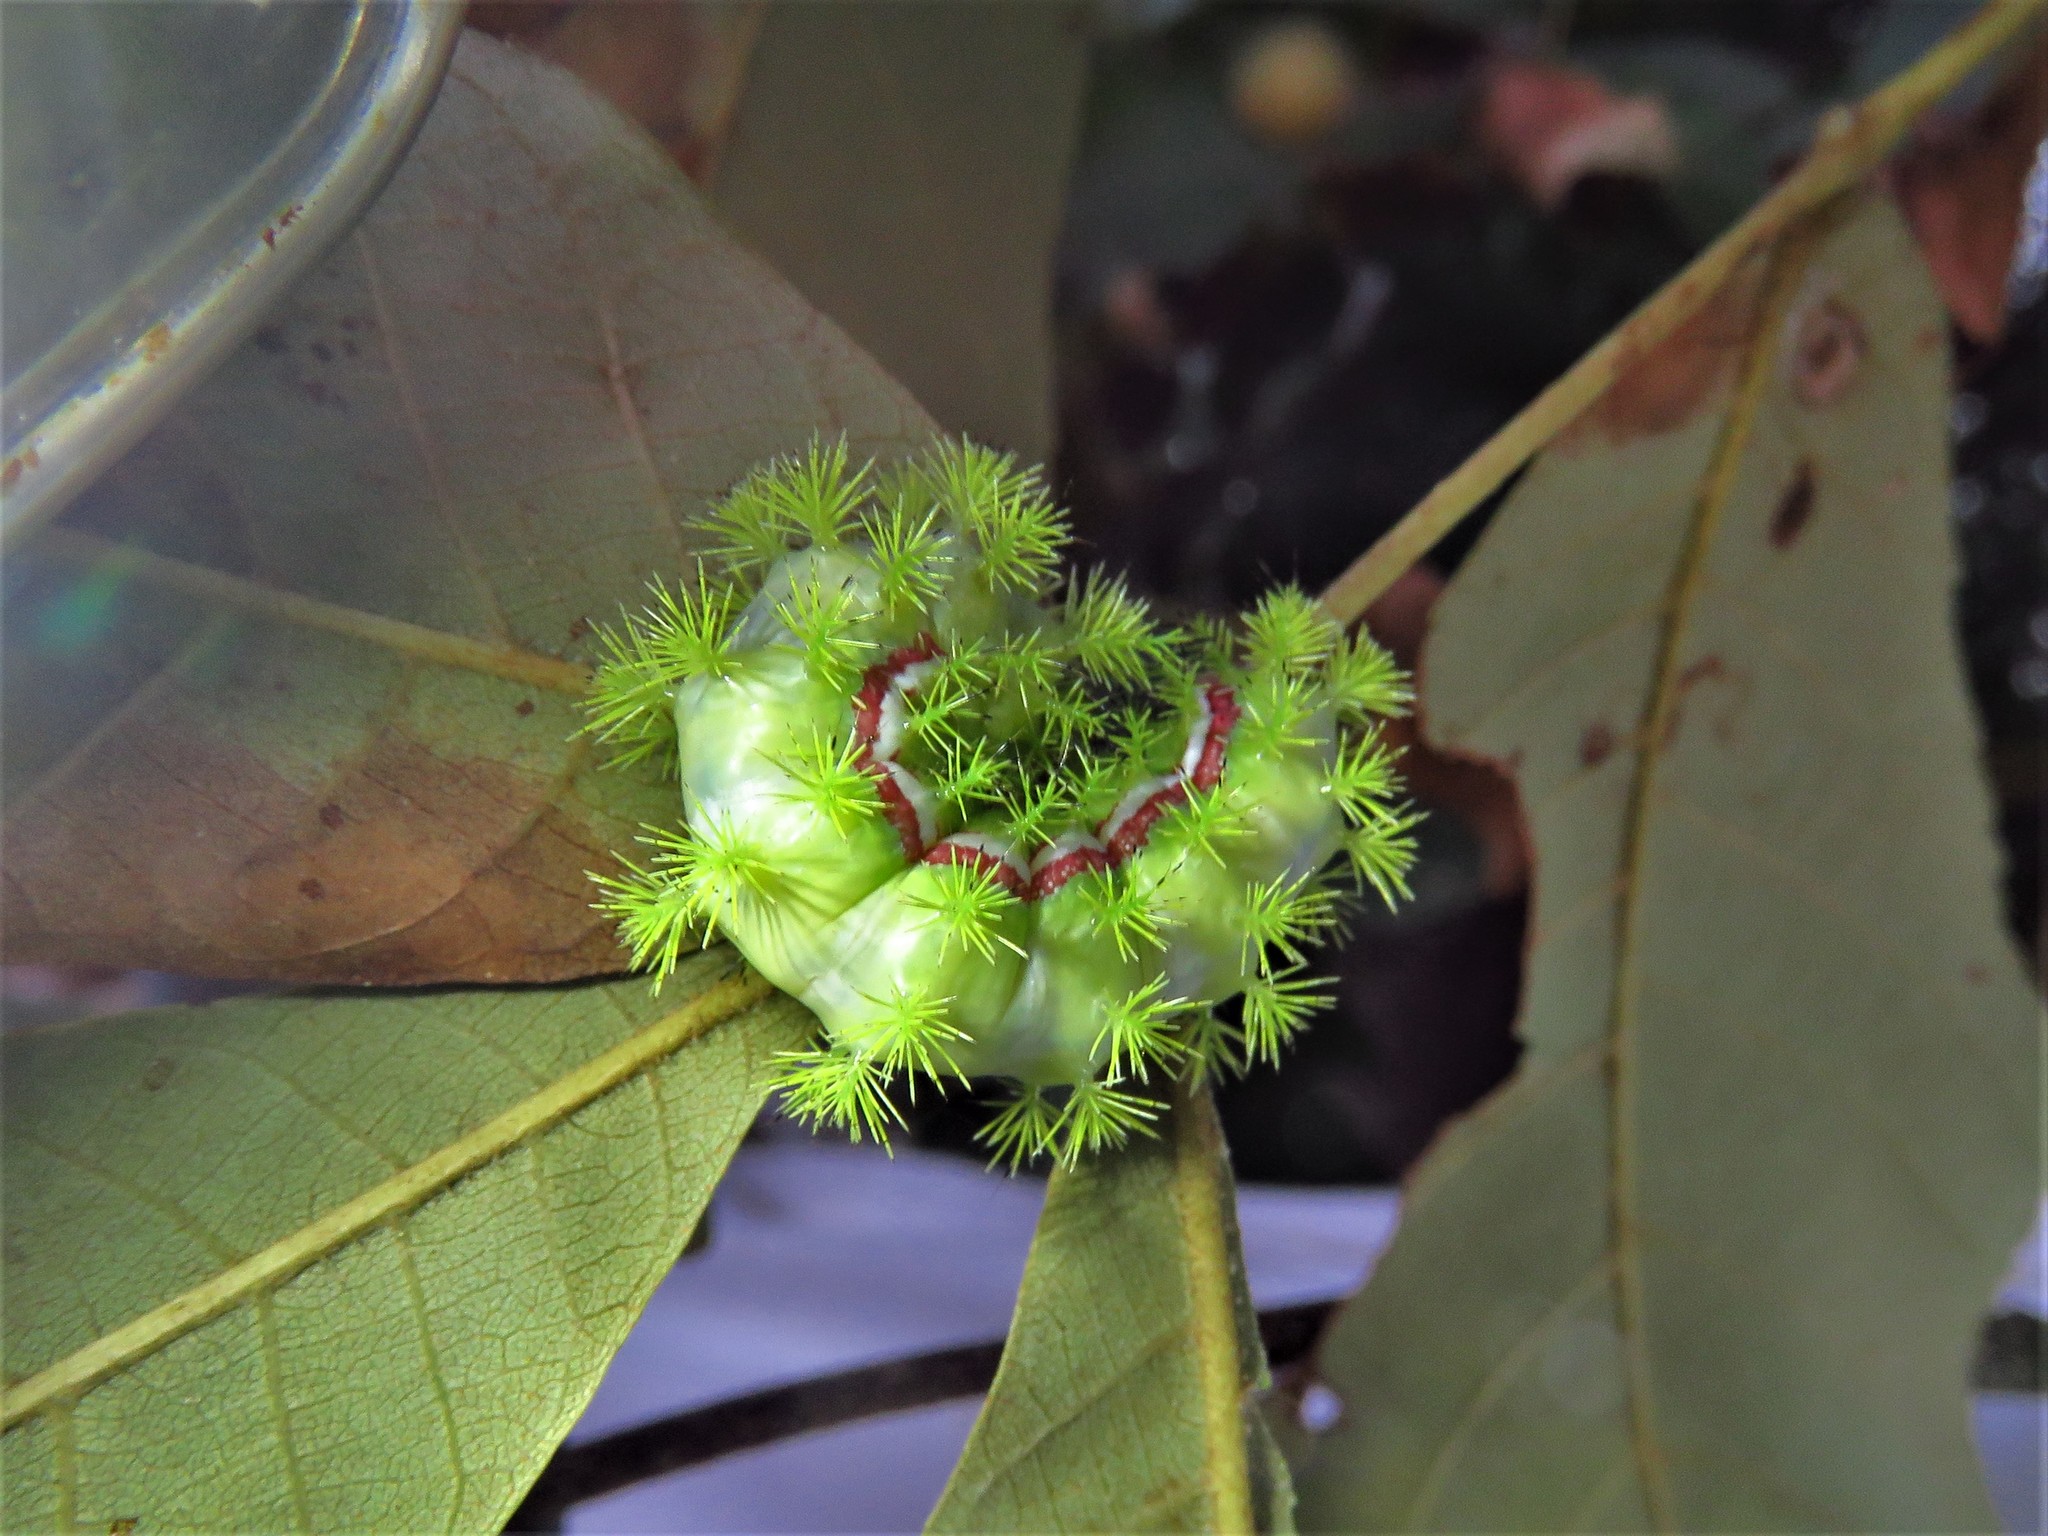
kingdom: Animalia
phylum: Arthropoda
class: Insecta
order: Lepidoptera
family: Saturniidae
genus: Automeris
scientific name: Automeris io
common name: Io moth
